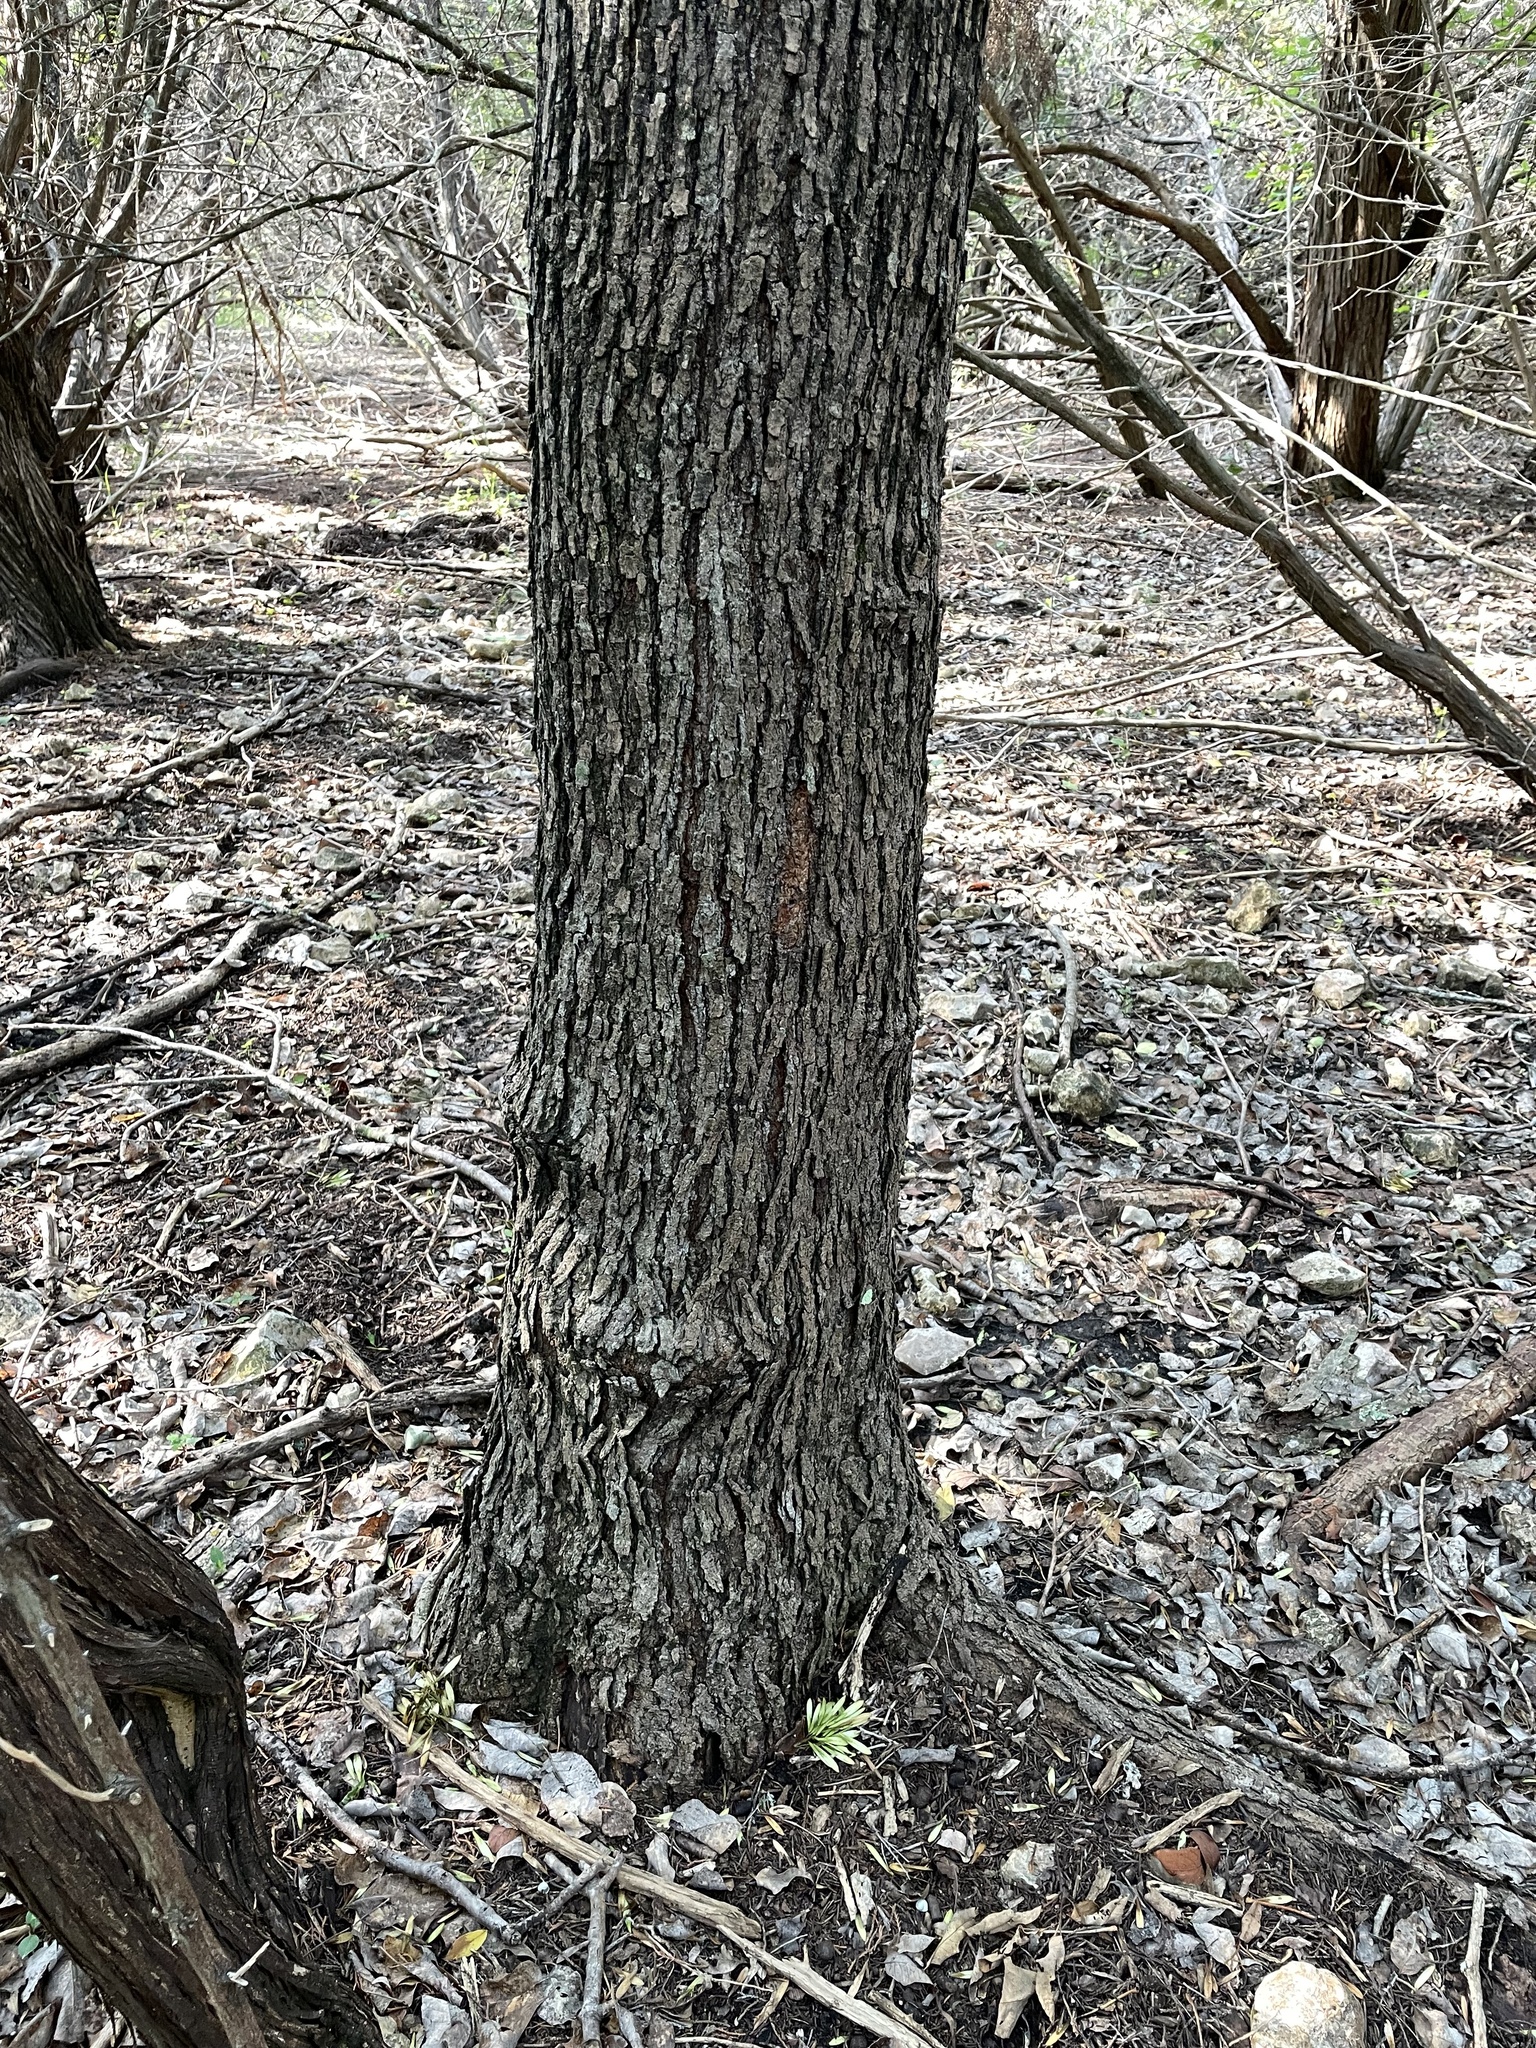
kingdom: Plantae
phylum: Tracheophyta
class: Magnoliopsida
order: Rosales
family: Moraceae
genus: Morus
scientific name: Morus rubra
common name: Red mulberry
